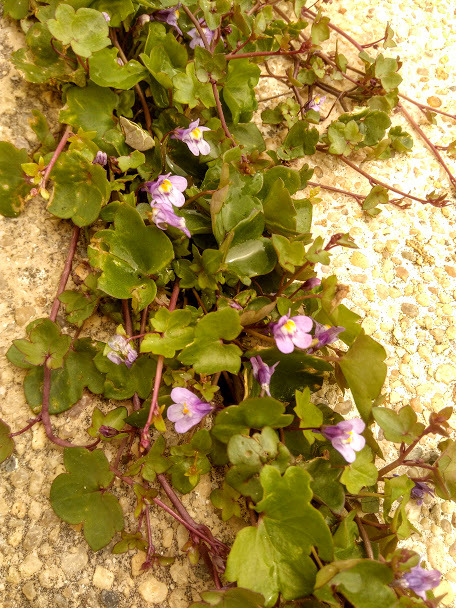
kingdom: Plantae
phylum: Tracheophyta
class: Magnoliopsida
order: Lamiales
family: Plantaginaceae
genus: Cymbalaria
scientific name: Cymbalaria muralis
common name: Ivy-leaved toadflax
